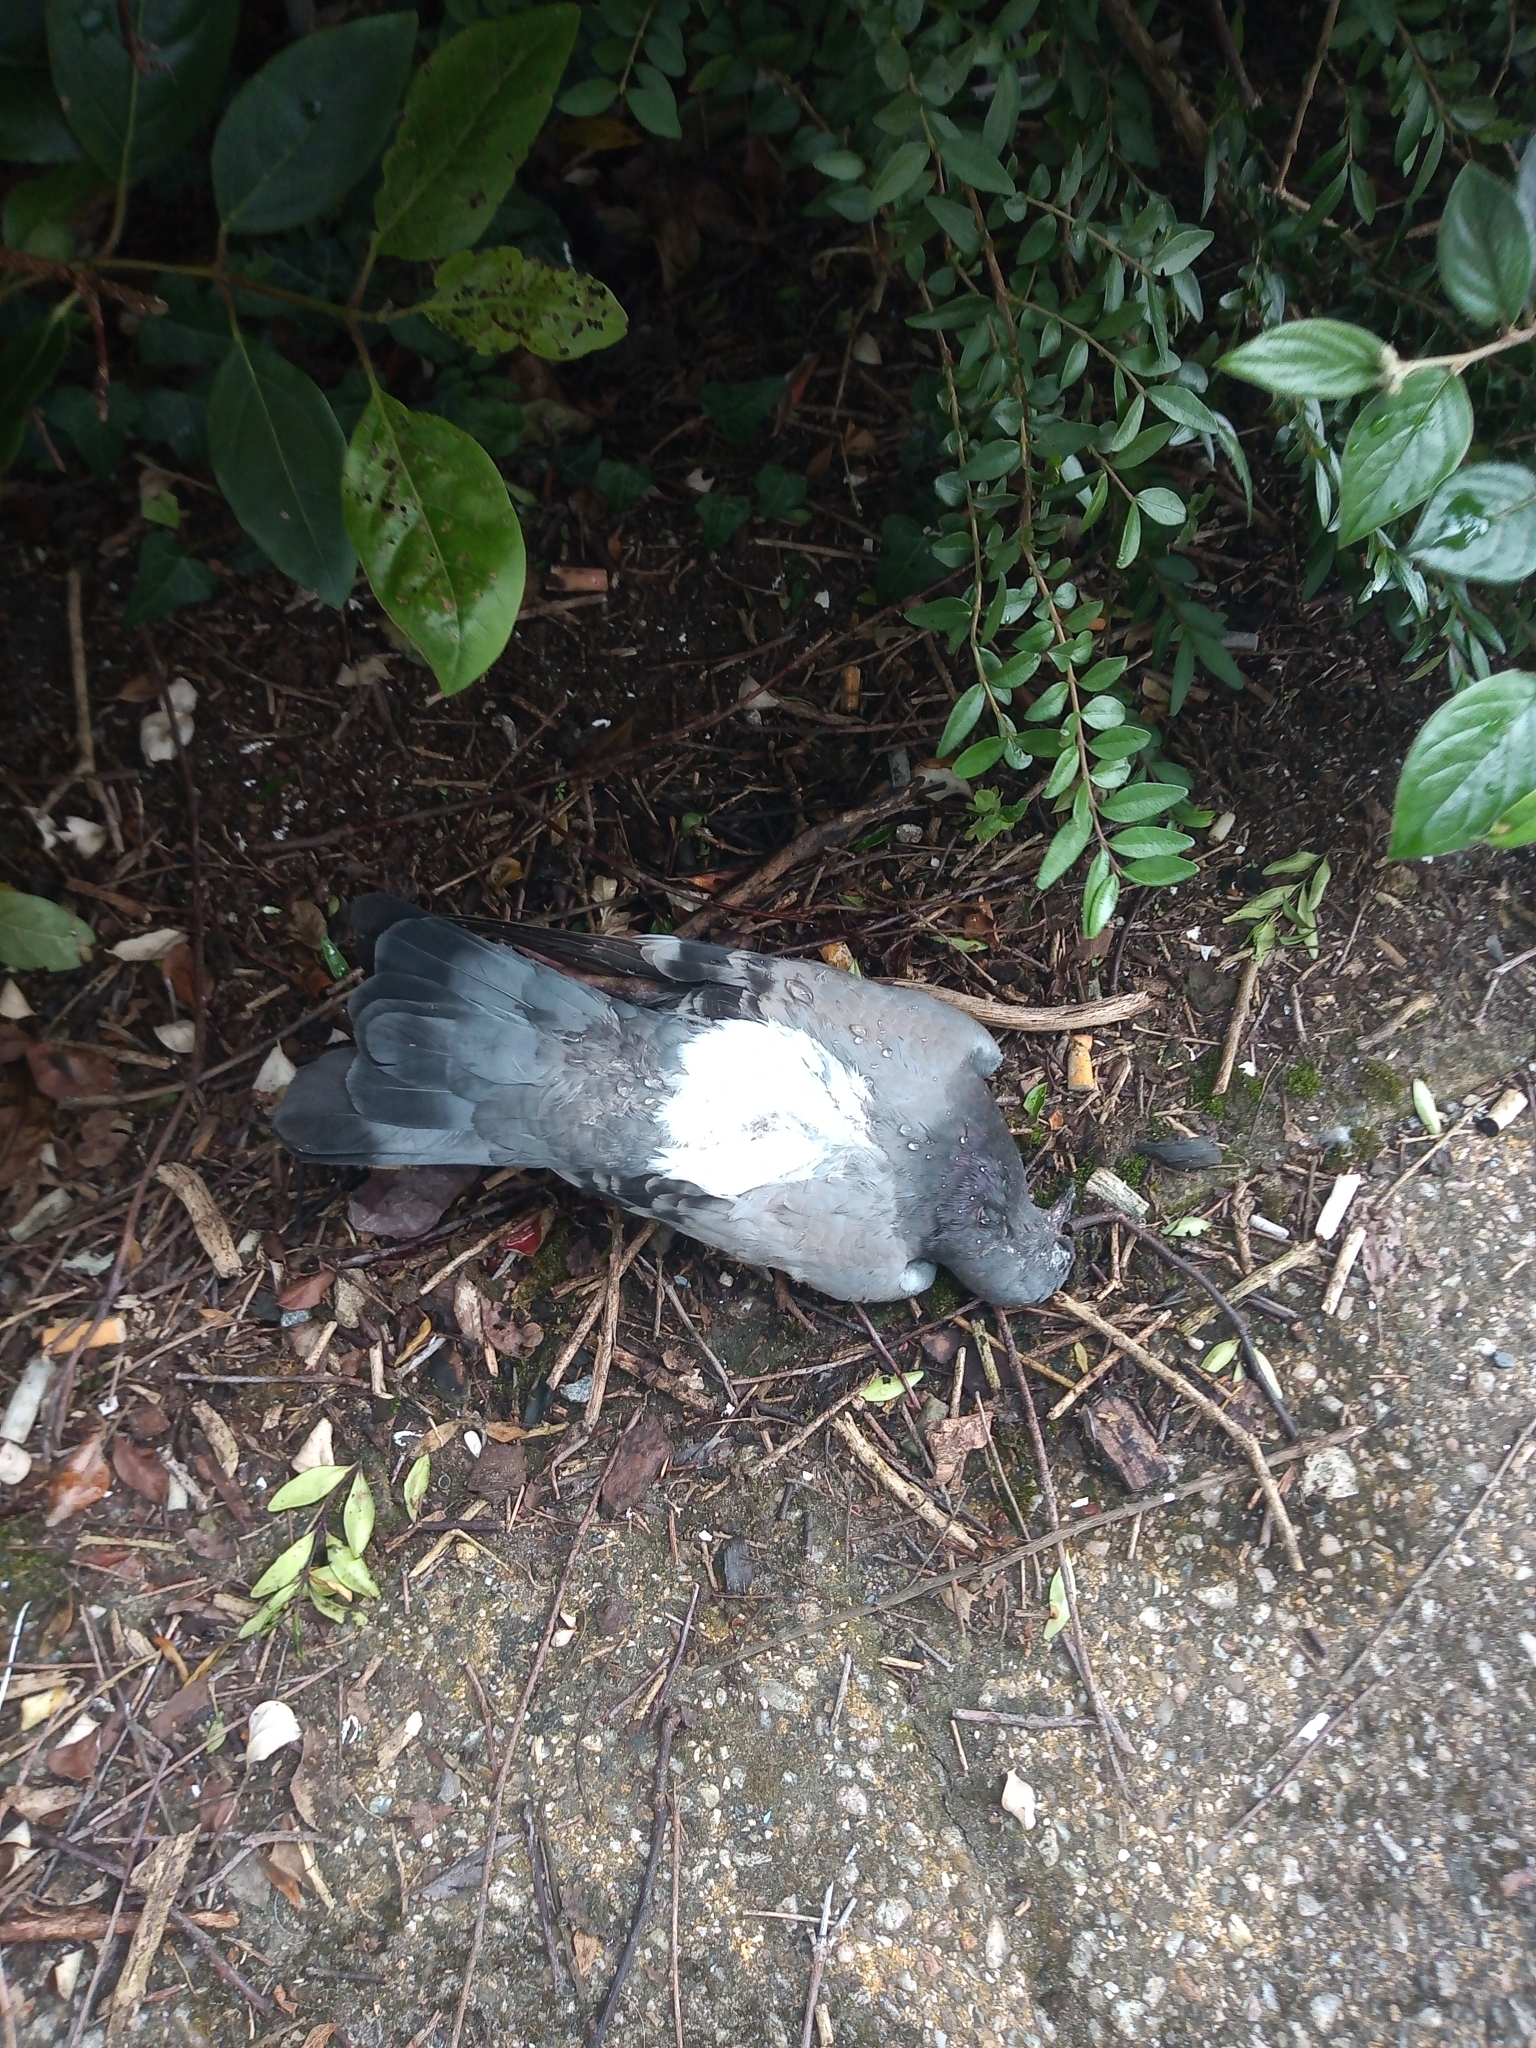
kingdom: Animalia
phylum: Chordata
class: Aves
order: Columbiformes
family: Columbidae
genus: Columba
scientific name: Columba livia
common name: Rock pigeon
